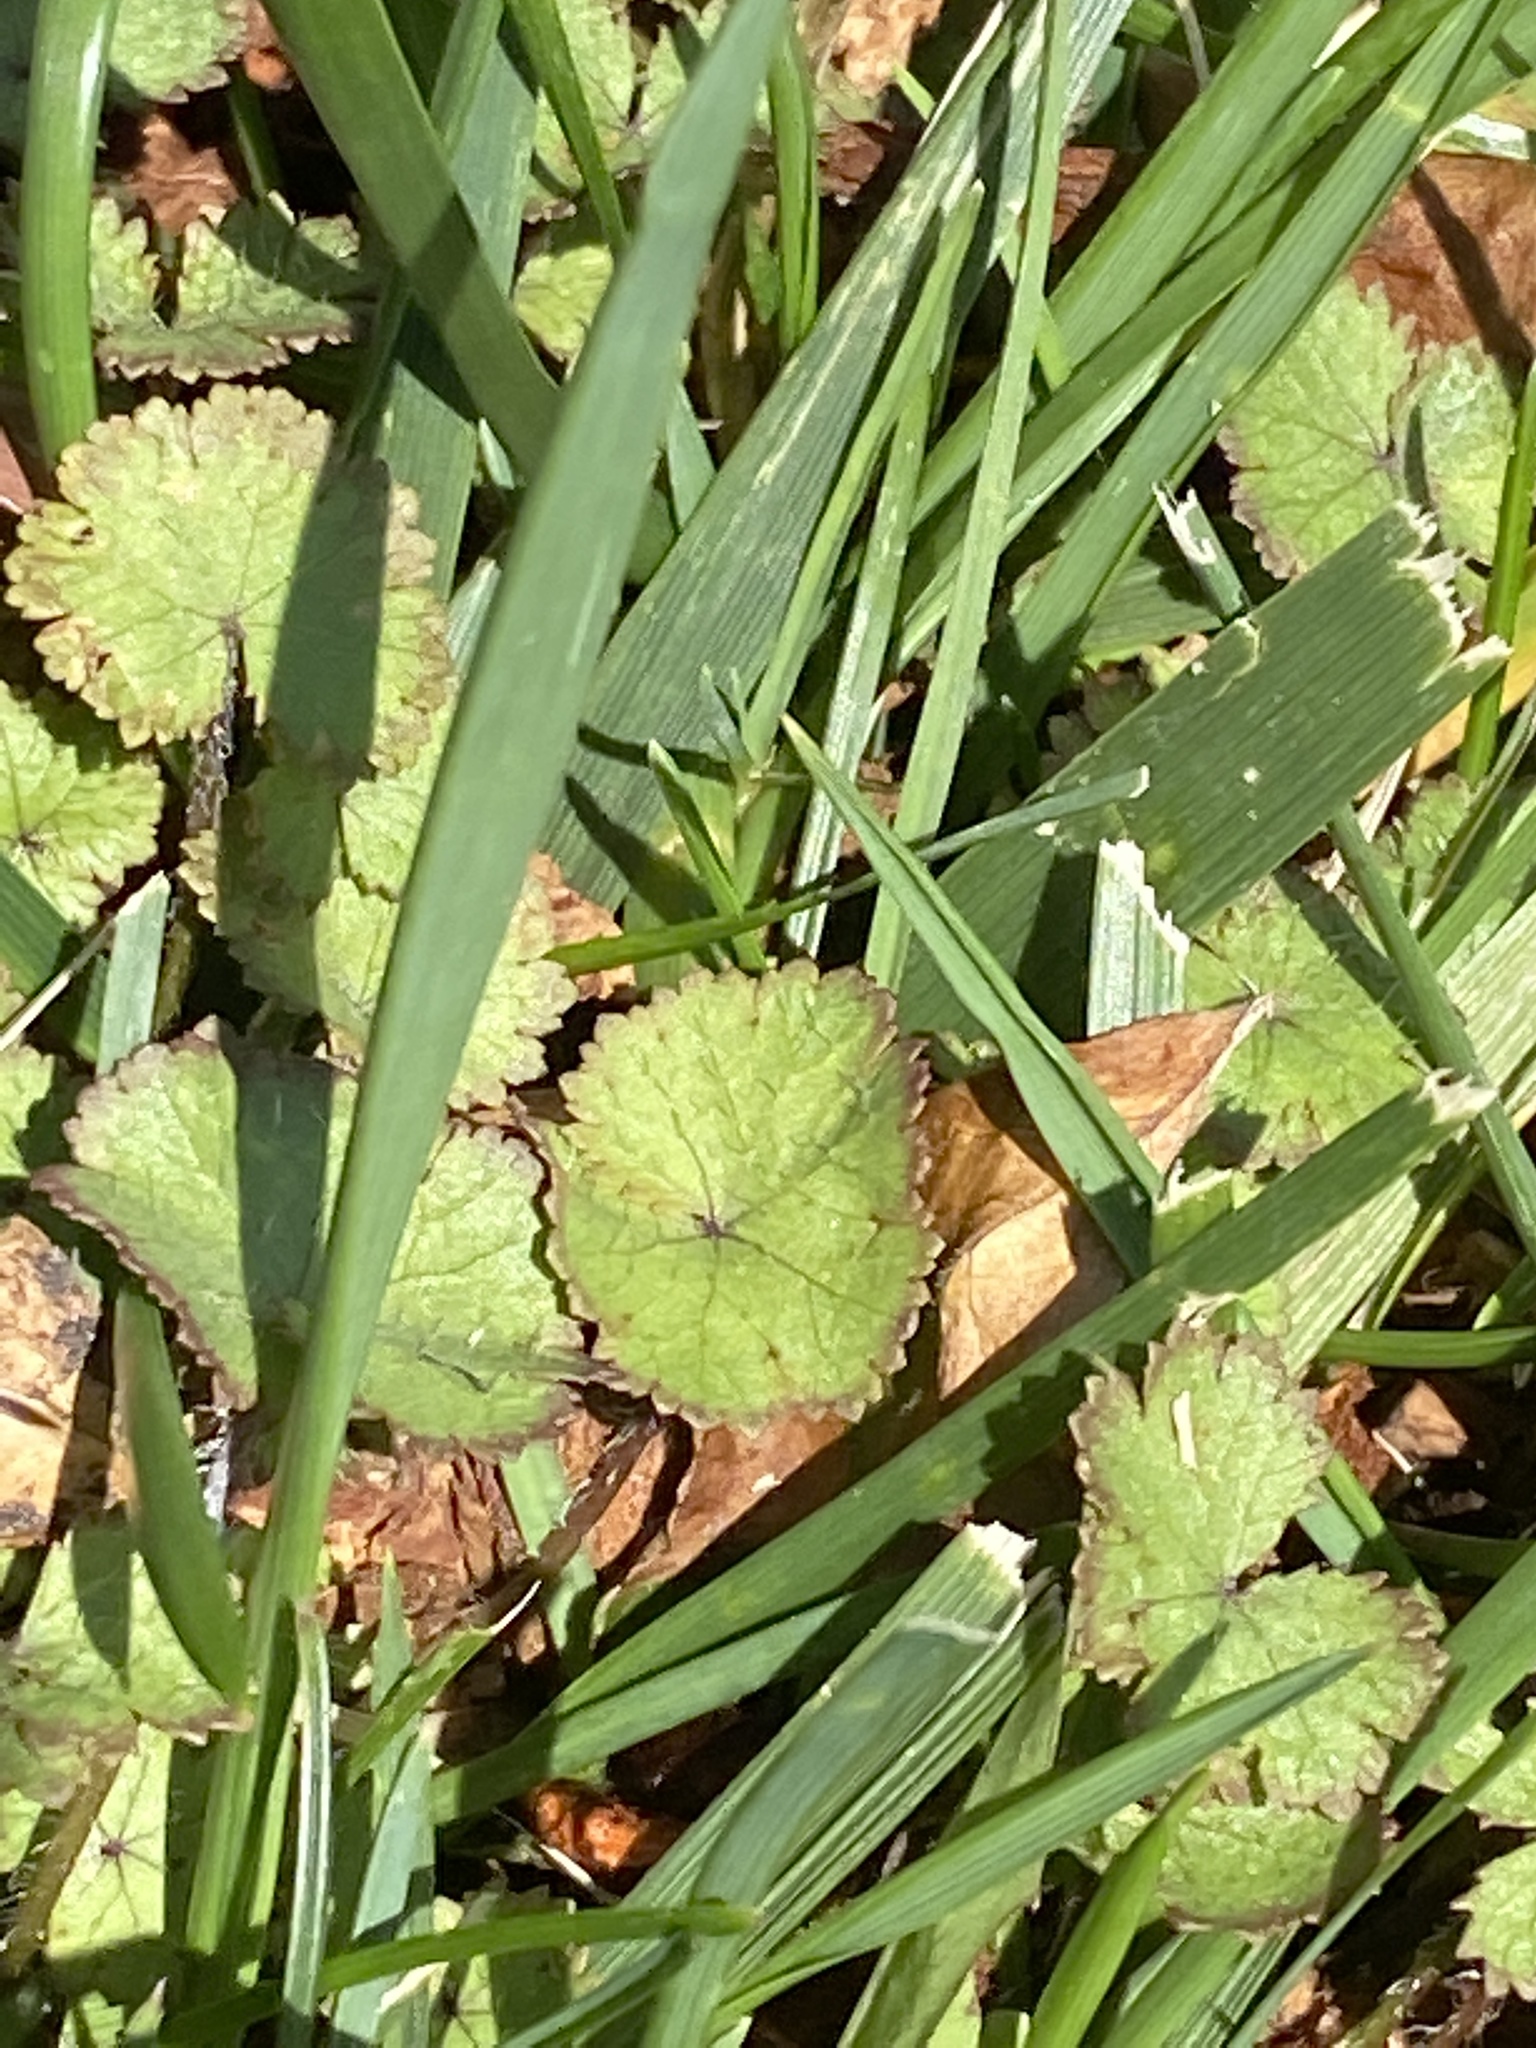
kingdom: Plantae
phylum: Tracheophyta
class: Magnoliopsida
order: Apiales
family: Araliaceae
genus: Hydrocotyle
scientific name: Hydrocotyle moschata
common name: Hairy pennywort
